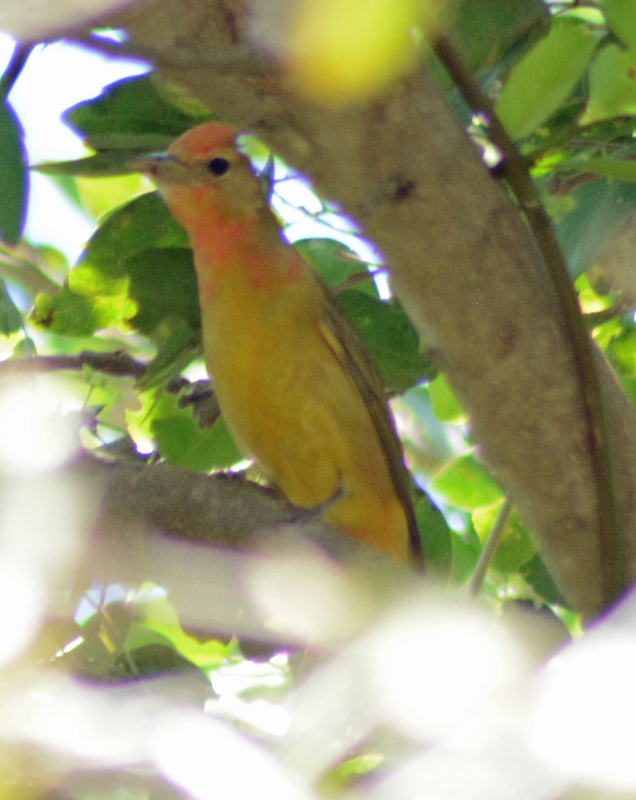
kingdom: Animalia
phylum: Chordata
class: Aves
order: Passeriformes
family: Cardinalidae
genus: Piranga
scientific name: Piranga ludoviciana
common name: Western tanager
